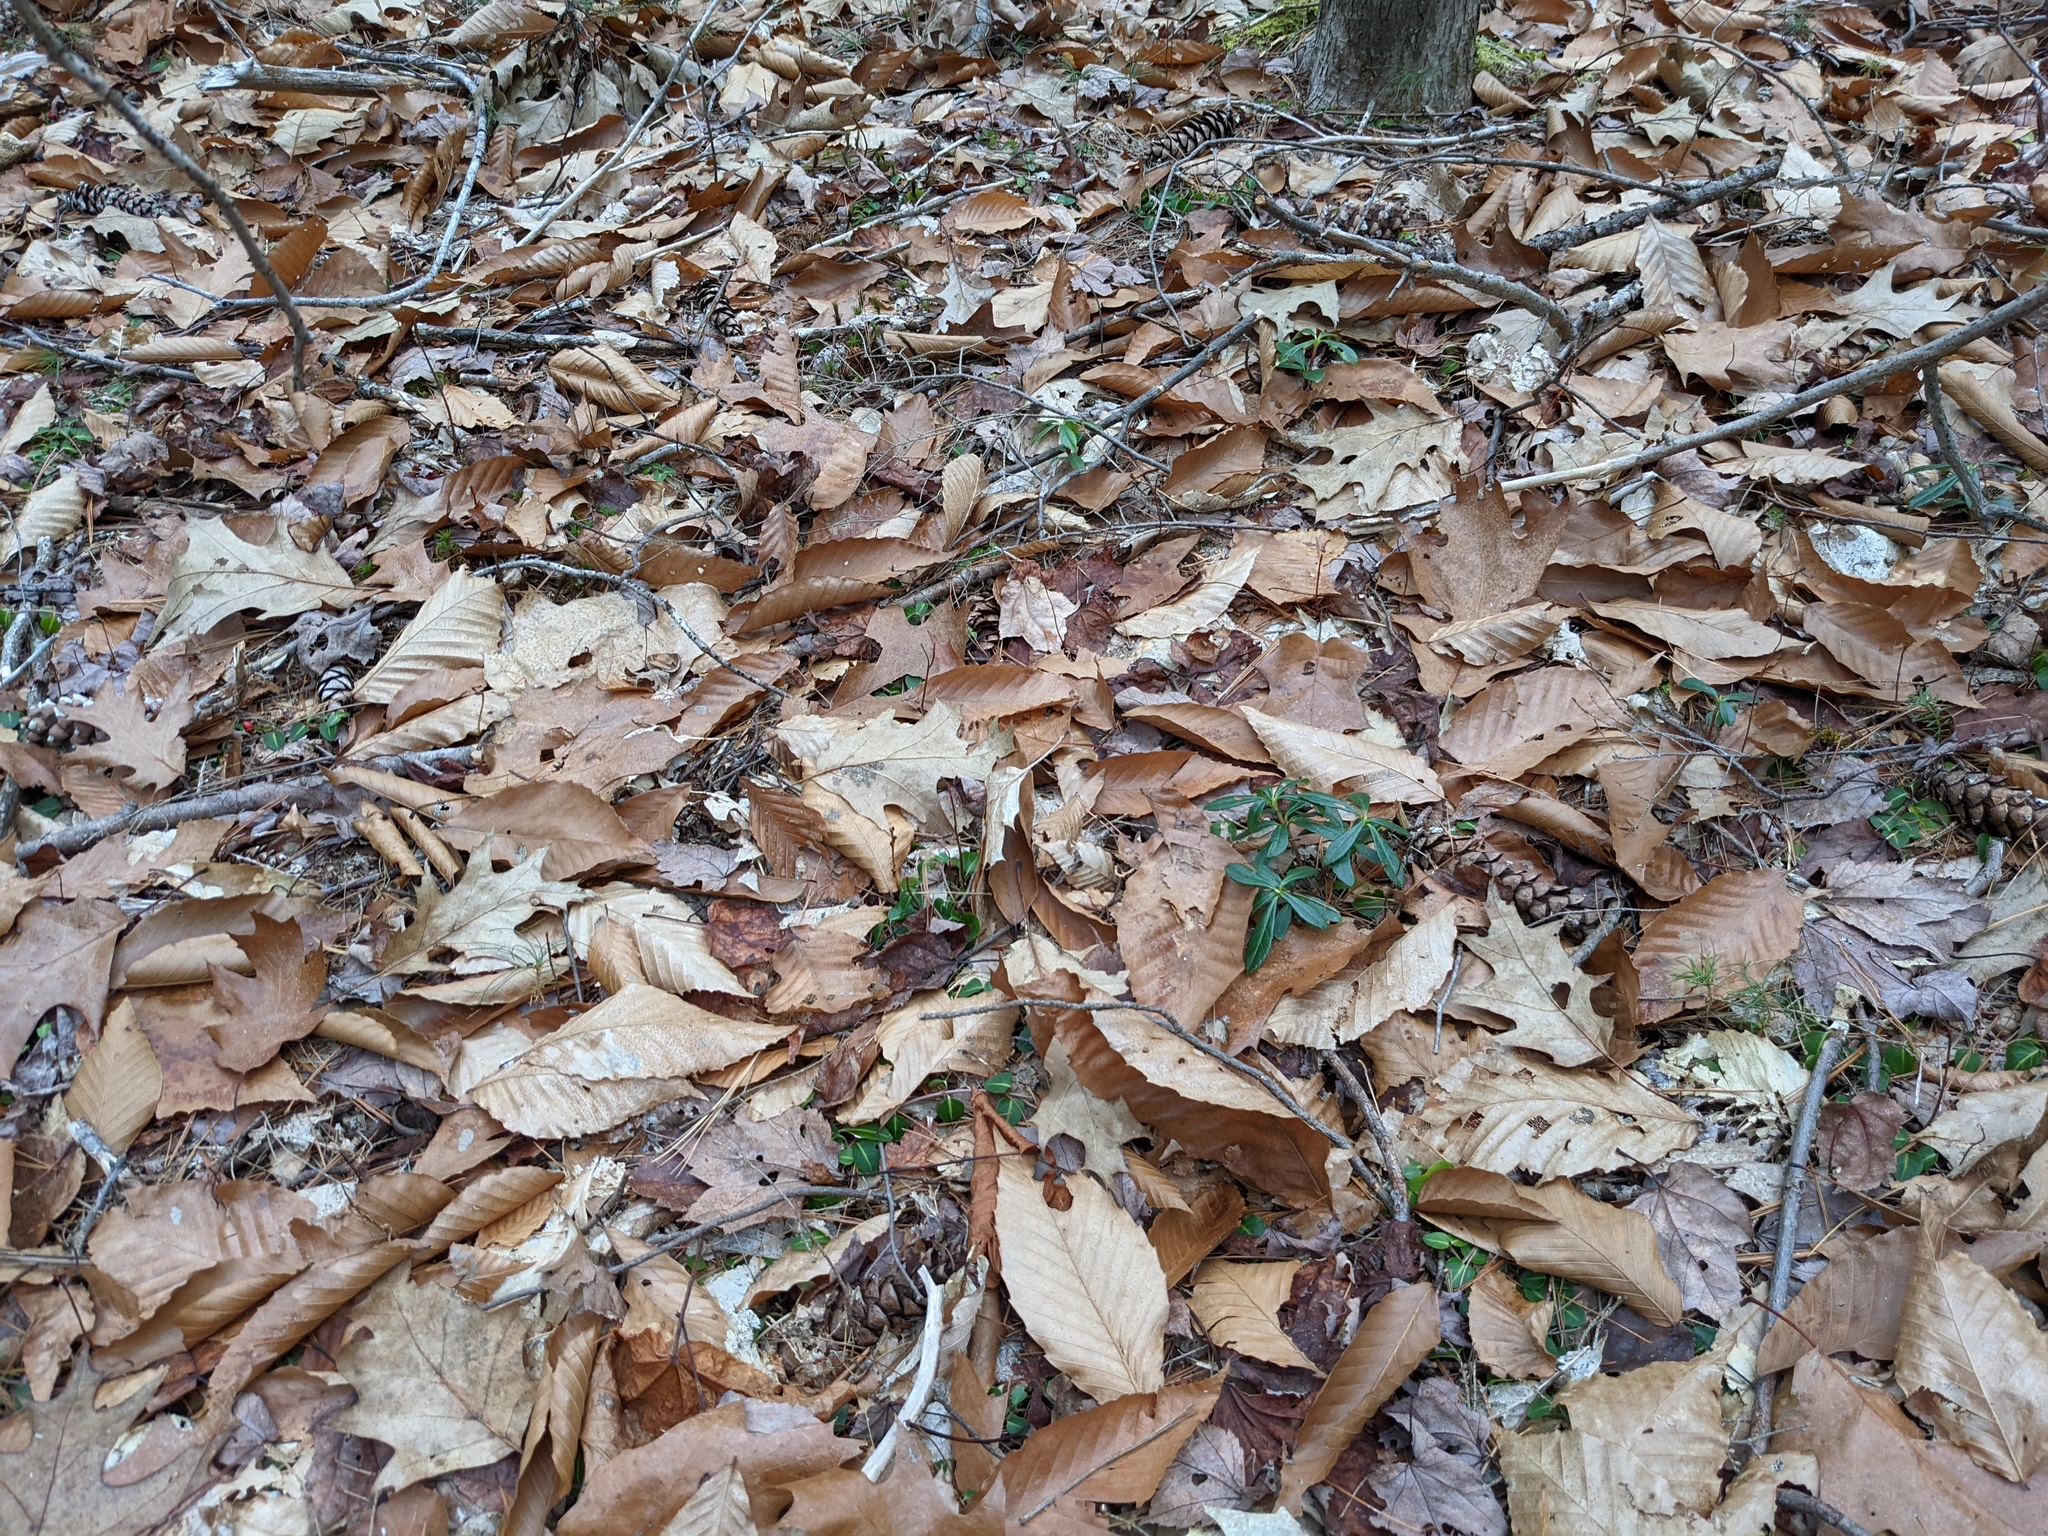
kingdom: Plantae
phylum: Tracheophyta
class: Magnoliopsida
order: Ericales
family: Ericaceae
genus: Chimaphila
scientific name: Chimaphila umbellata
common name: Pipsissewa
